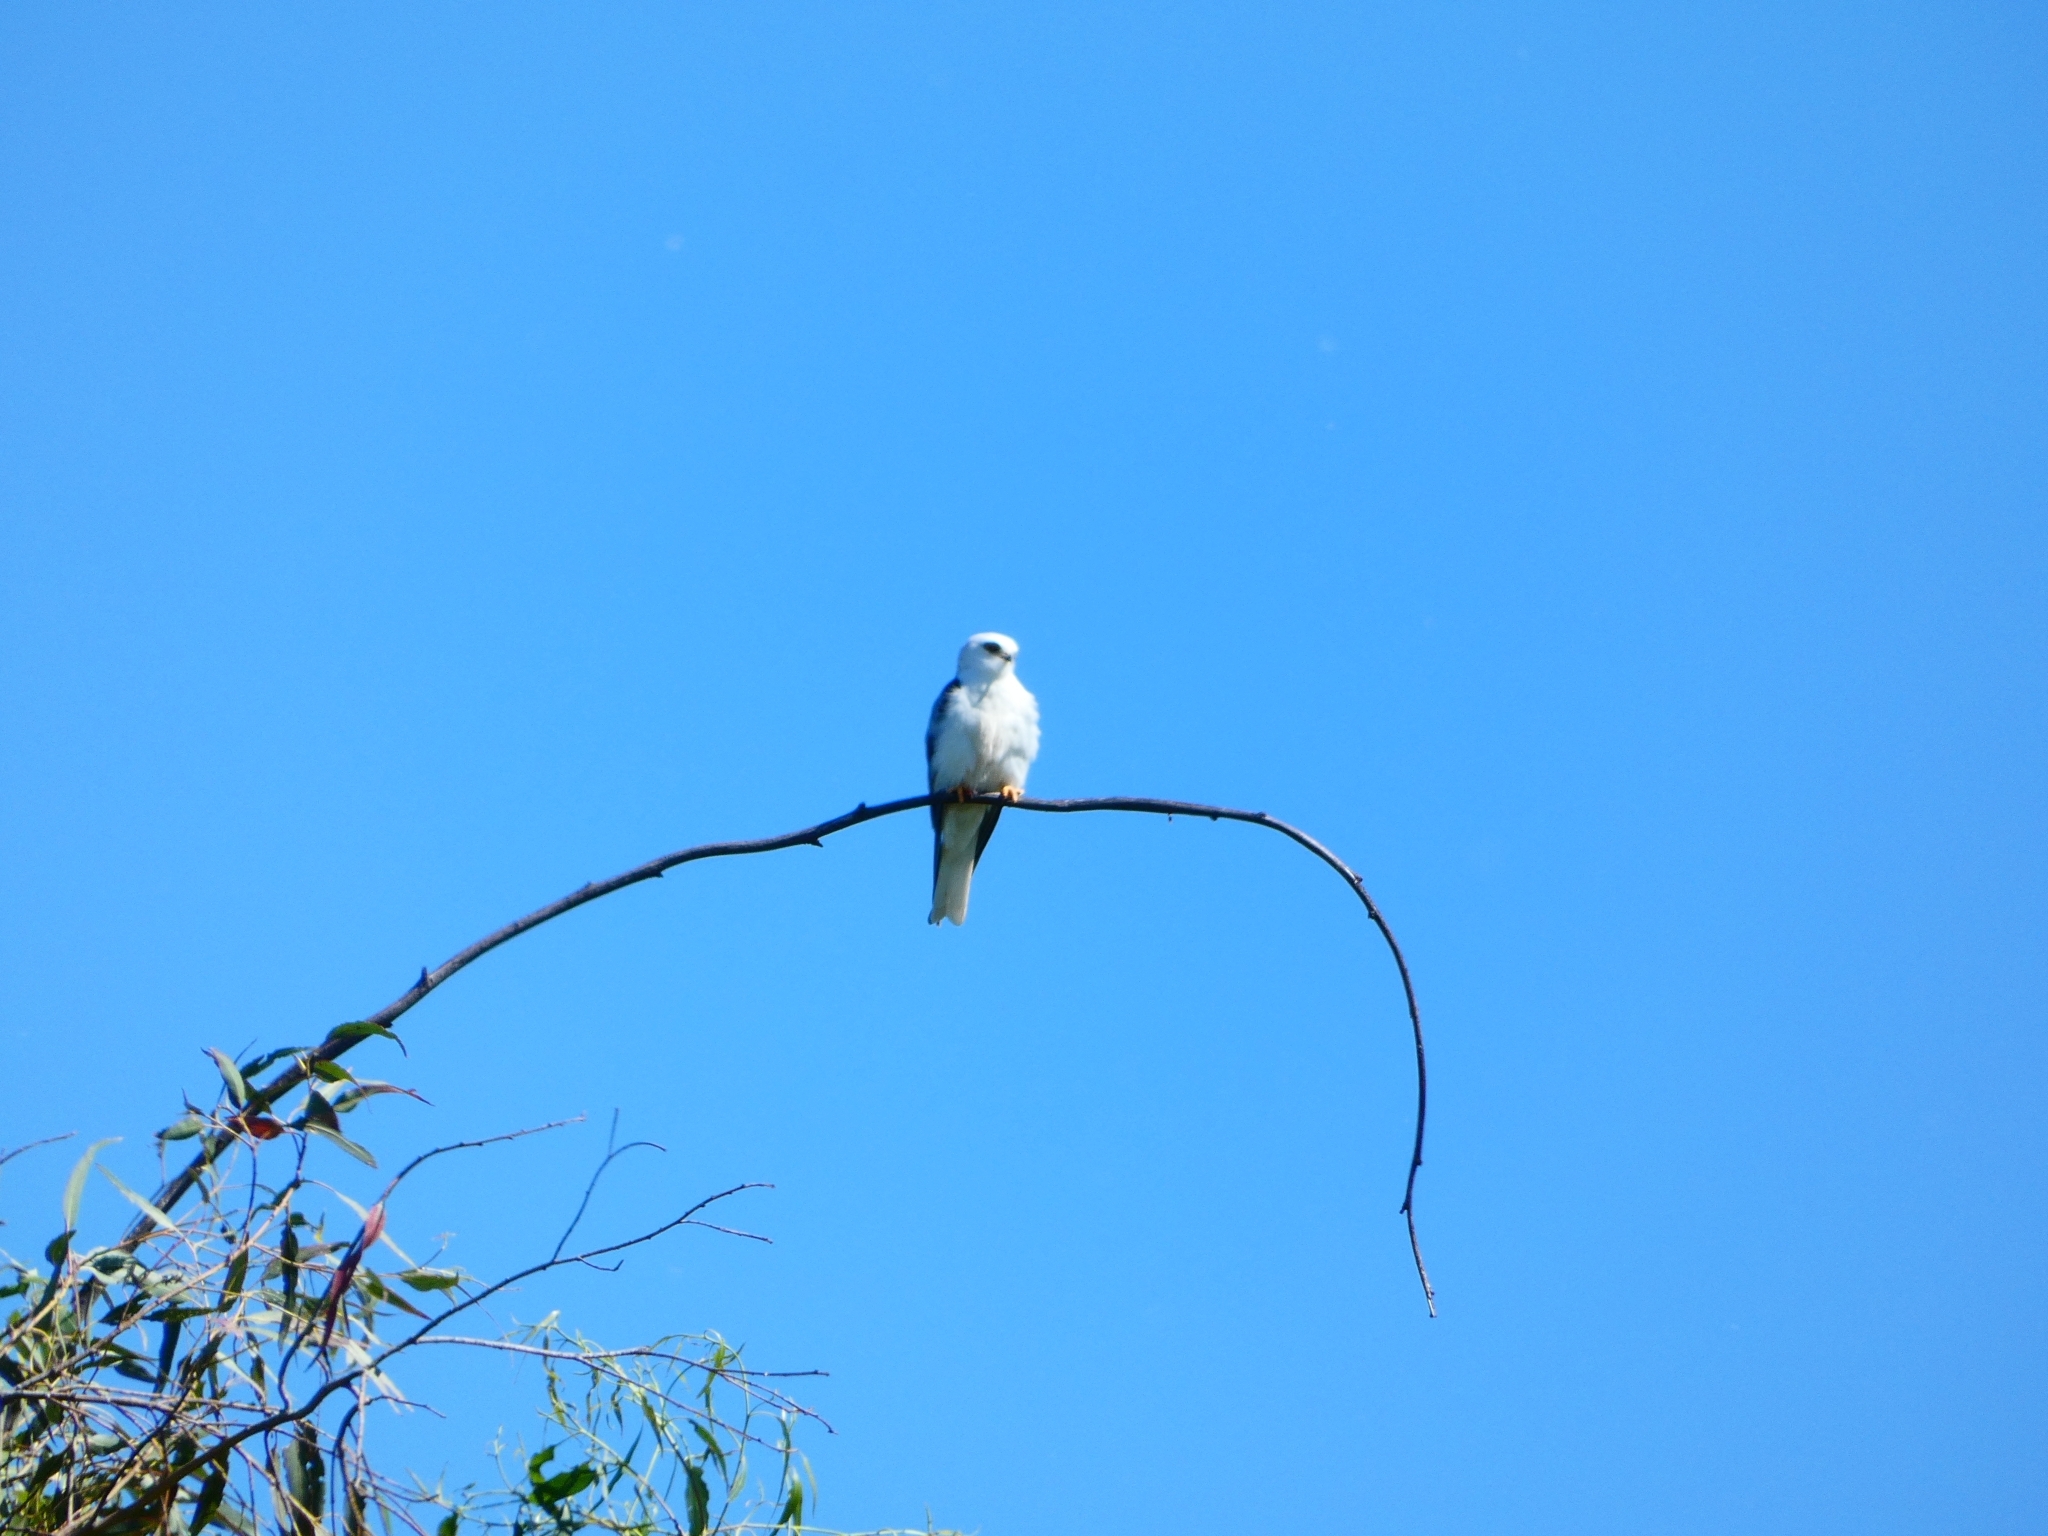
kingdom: Animalia
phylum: Chordata
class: Aves
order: Accipitriformes
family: Accipitridae
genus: Elanus
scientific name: Elanus leucurus
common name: White-tailed kite
